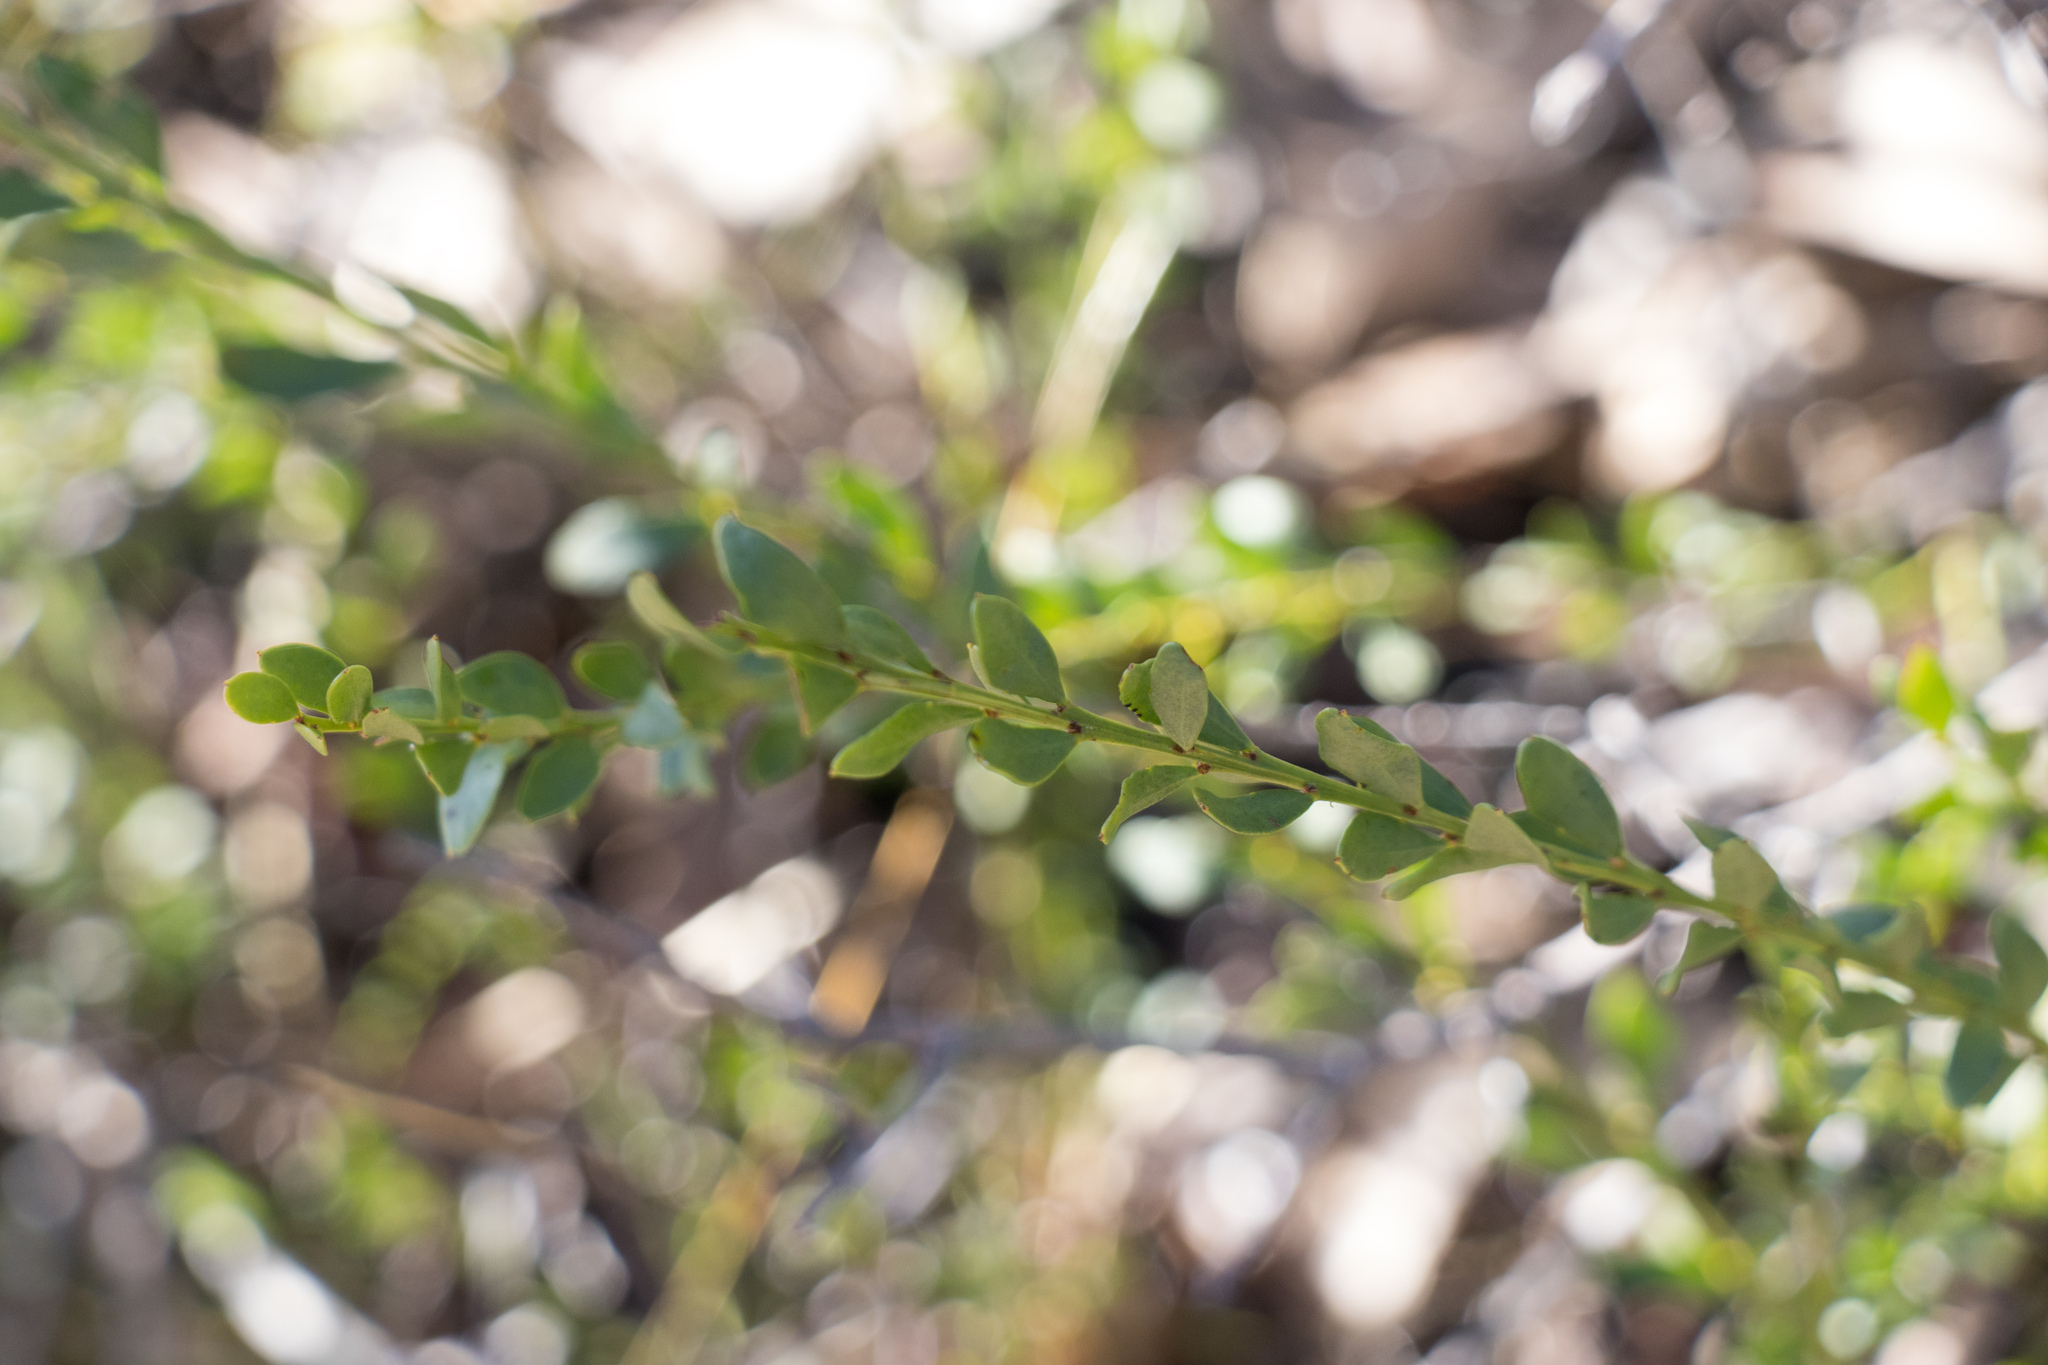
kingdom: Plantae
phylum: Tracheophyta
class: Magnoliopsida
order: Fabales
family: Fabaceae
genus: Acacia
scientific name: Acacia acinacea
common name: Gold-dust acacia
